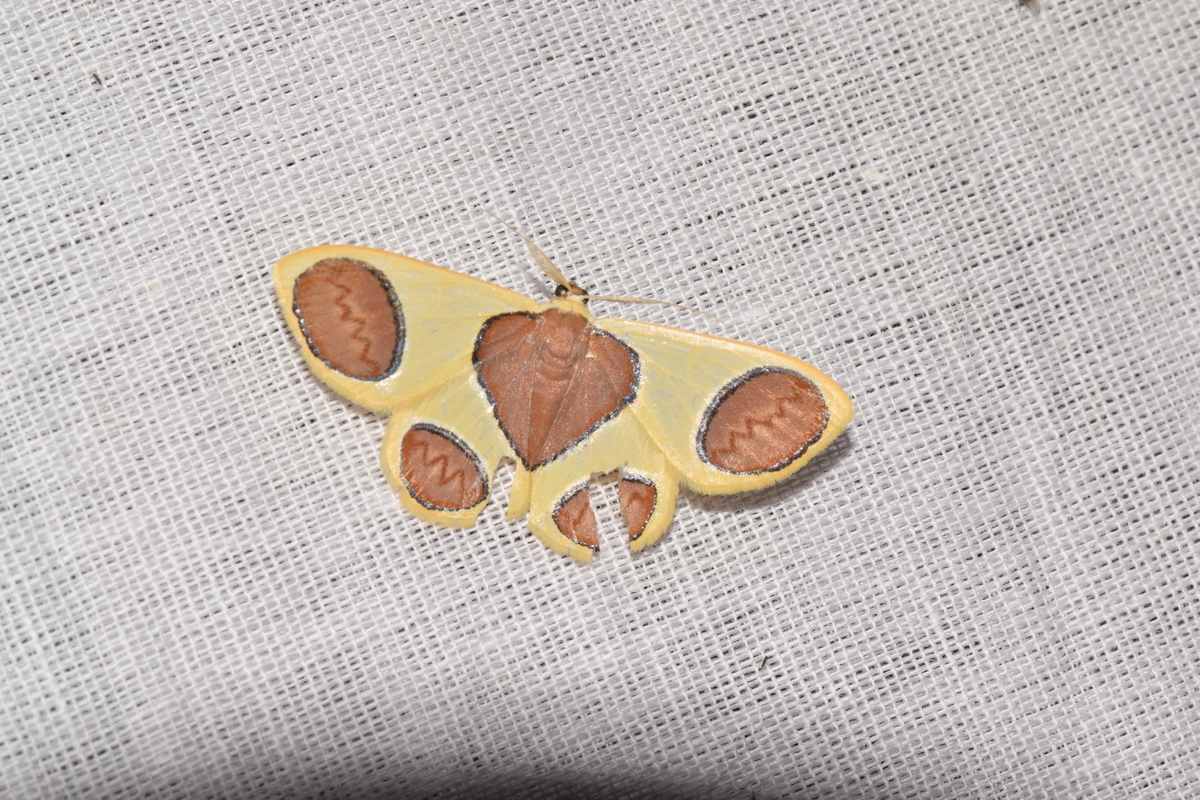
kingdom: Animalia
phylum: Arthropoda
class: Insecta
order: Lepidoptera
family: Geometridae
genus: Plutodes
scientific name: Plutodes flavescens
